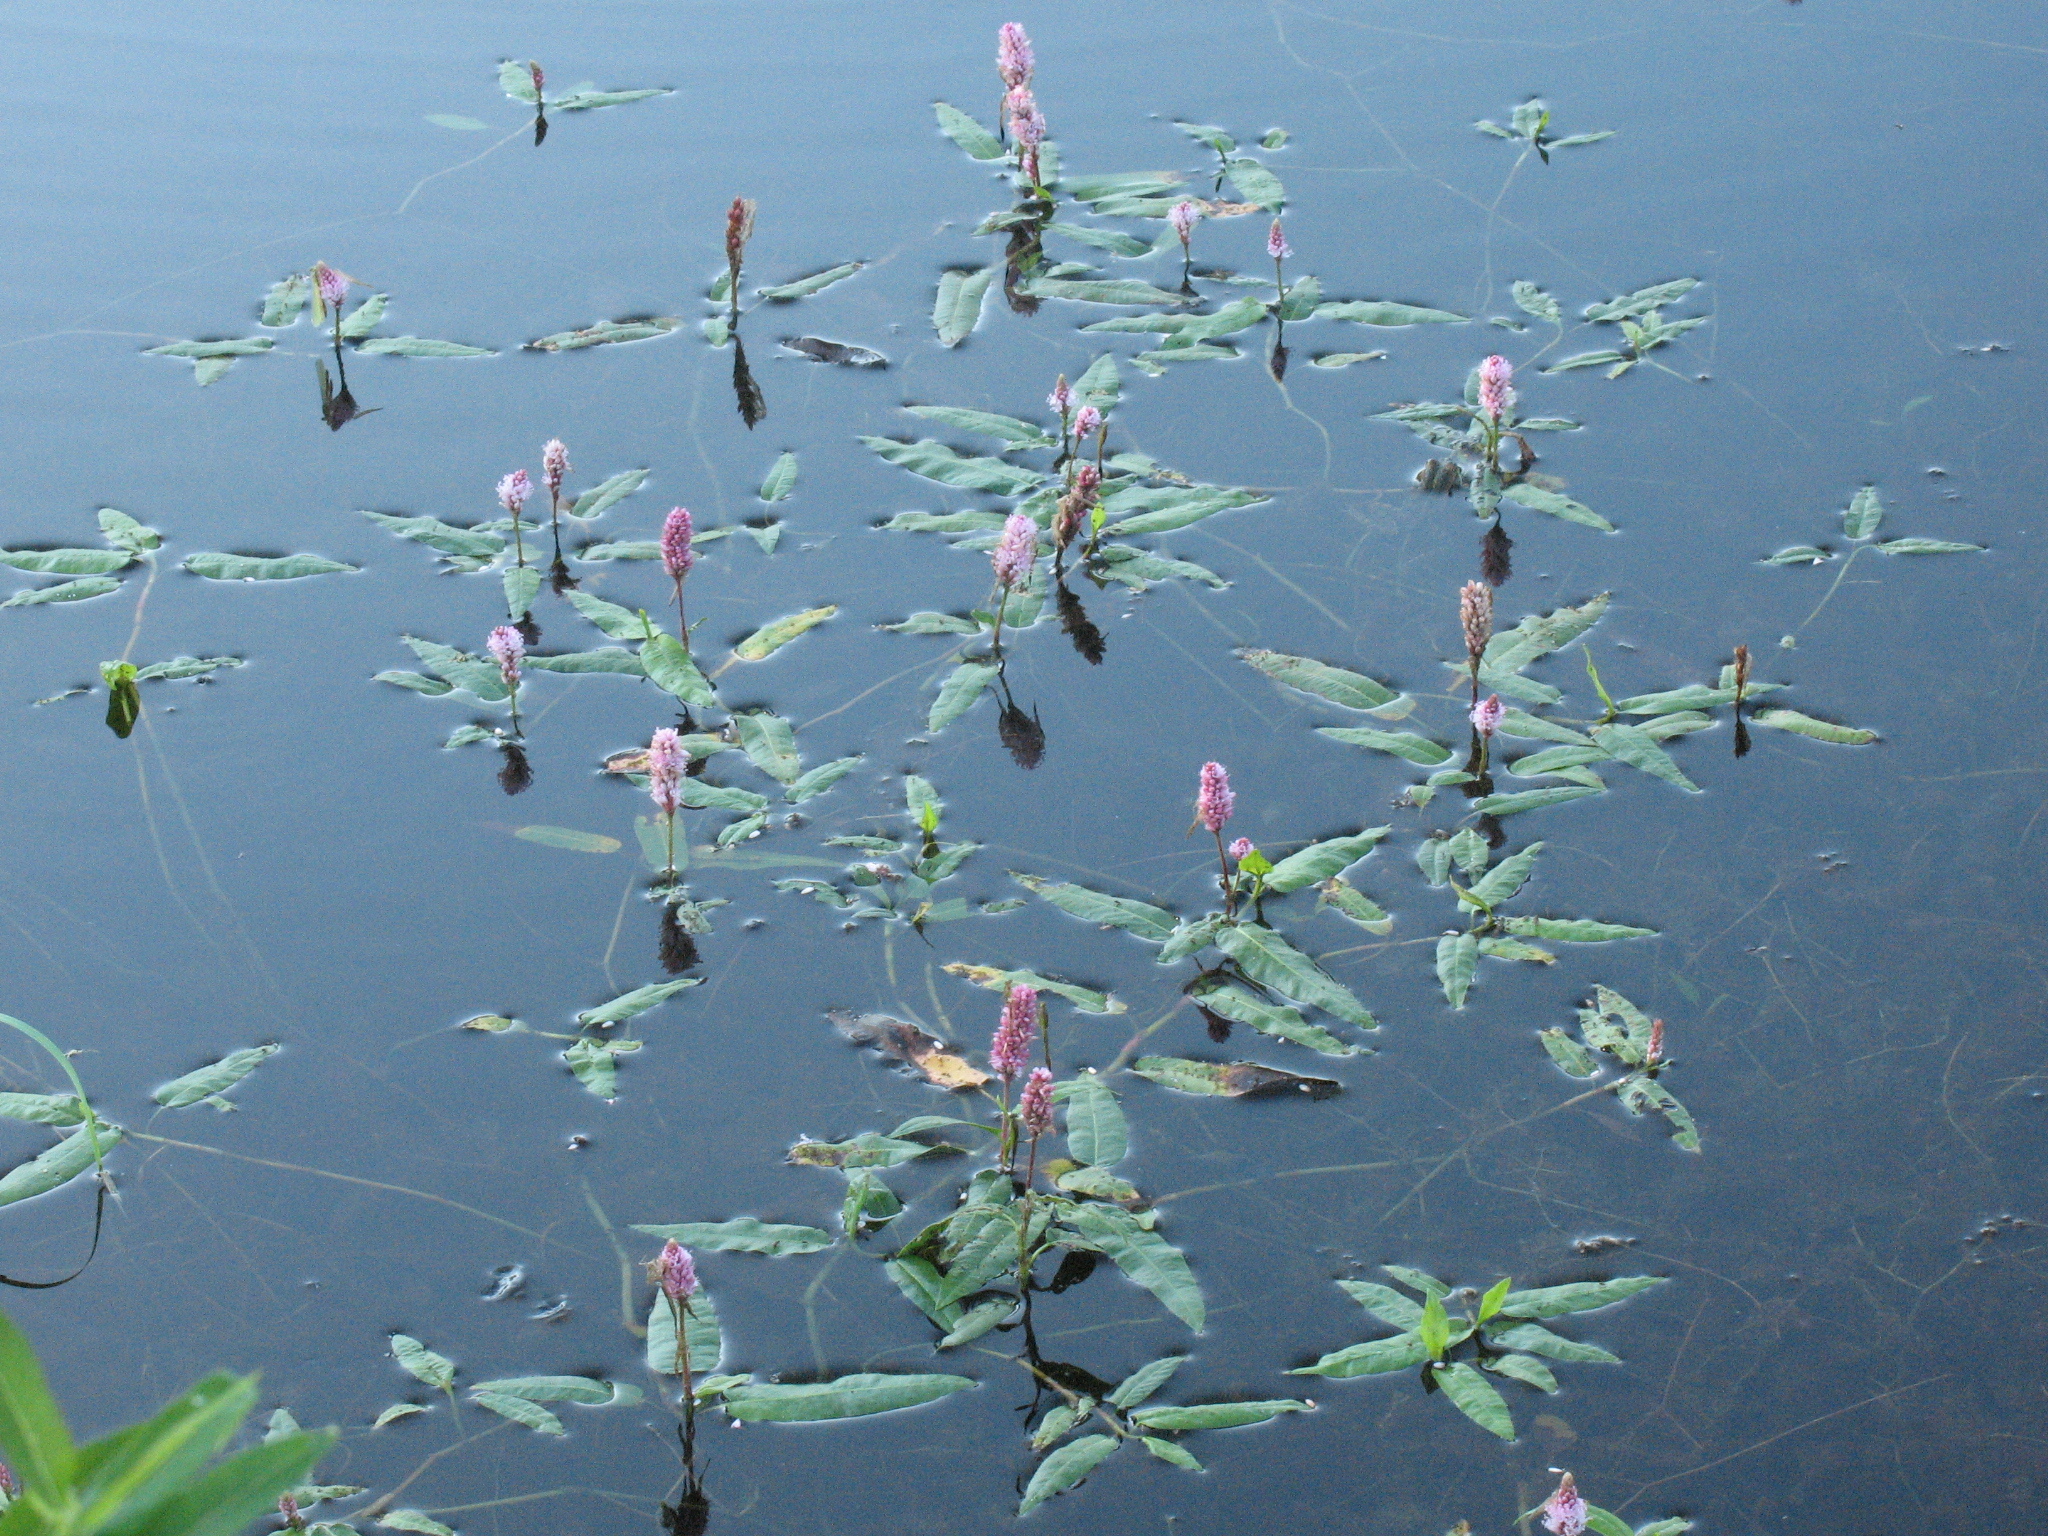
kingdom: Plantae
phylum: Tracheophyta
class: Magnoliopsida
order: Caryophyllales
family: Polygonaceae
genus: Persicaria
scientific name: Persicaria amphibia
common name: Amphibious bistort
